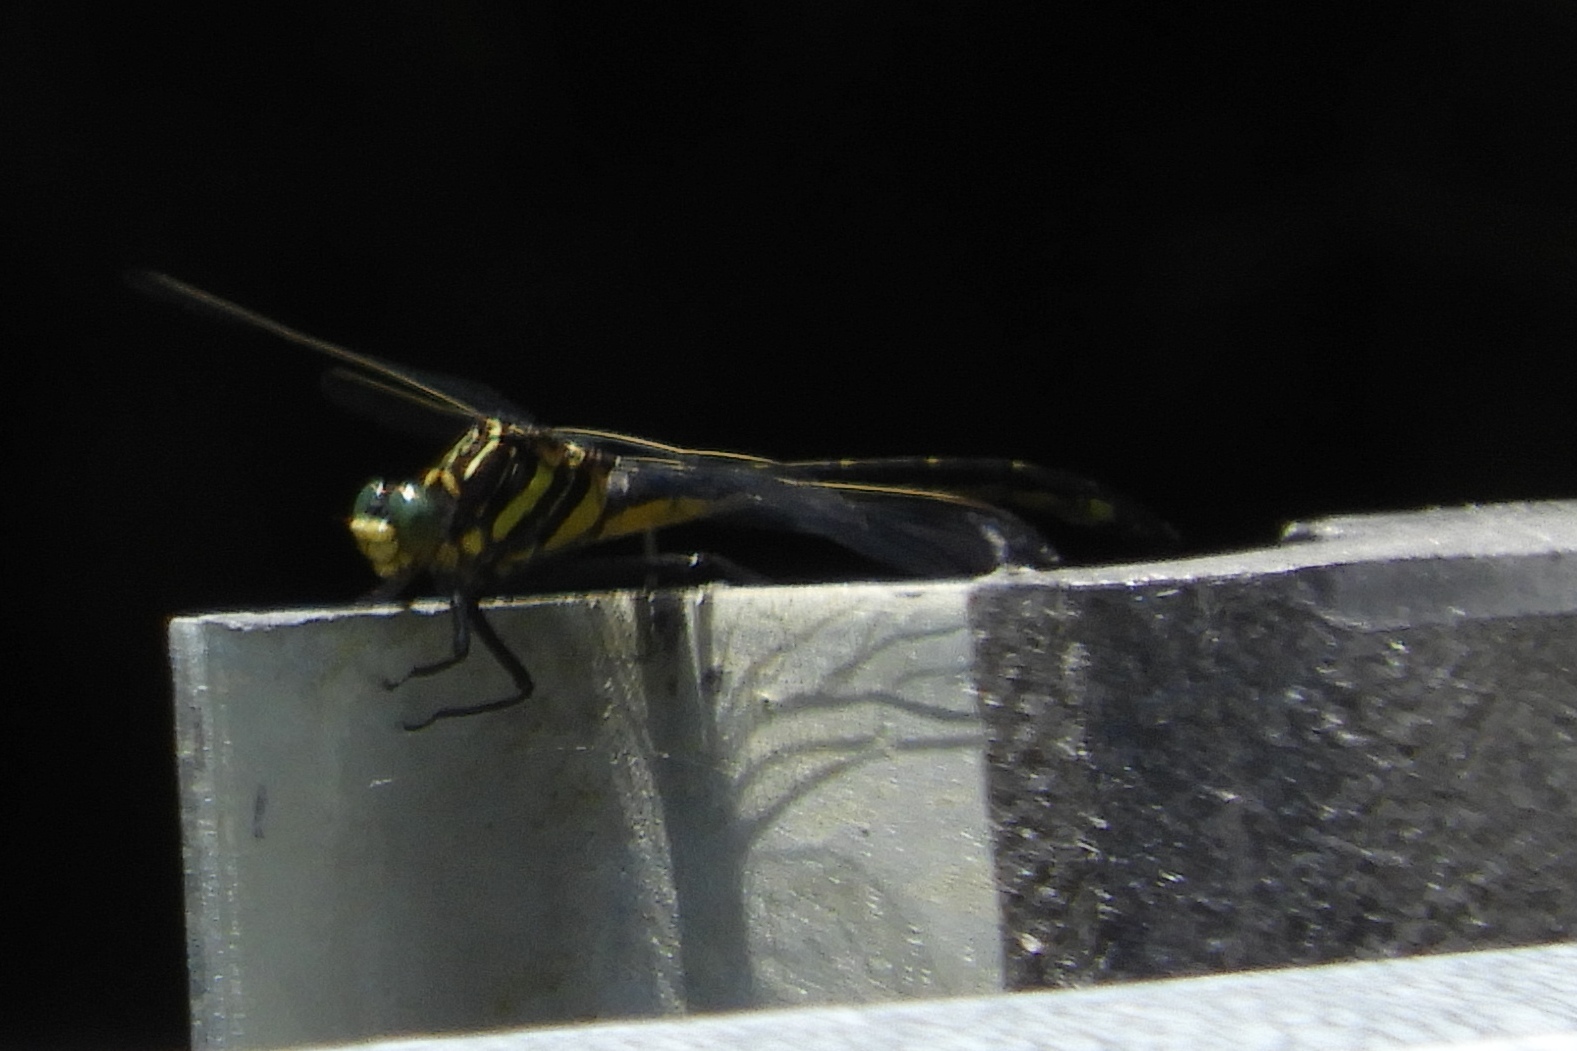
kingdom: Animalia
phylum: Arthropoda
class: Insecta
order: Odonata
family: Gomphidae
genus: Hagenius
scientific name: Hagenius brevistylus
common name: Dragonhunter
